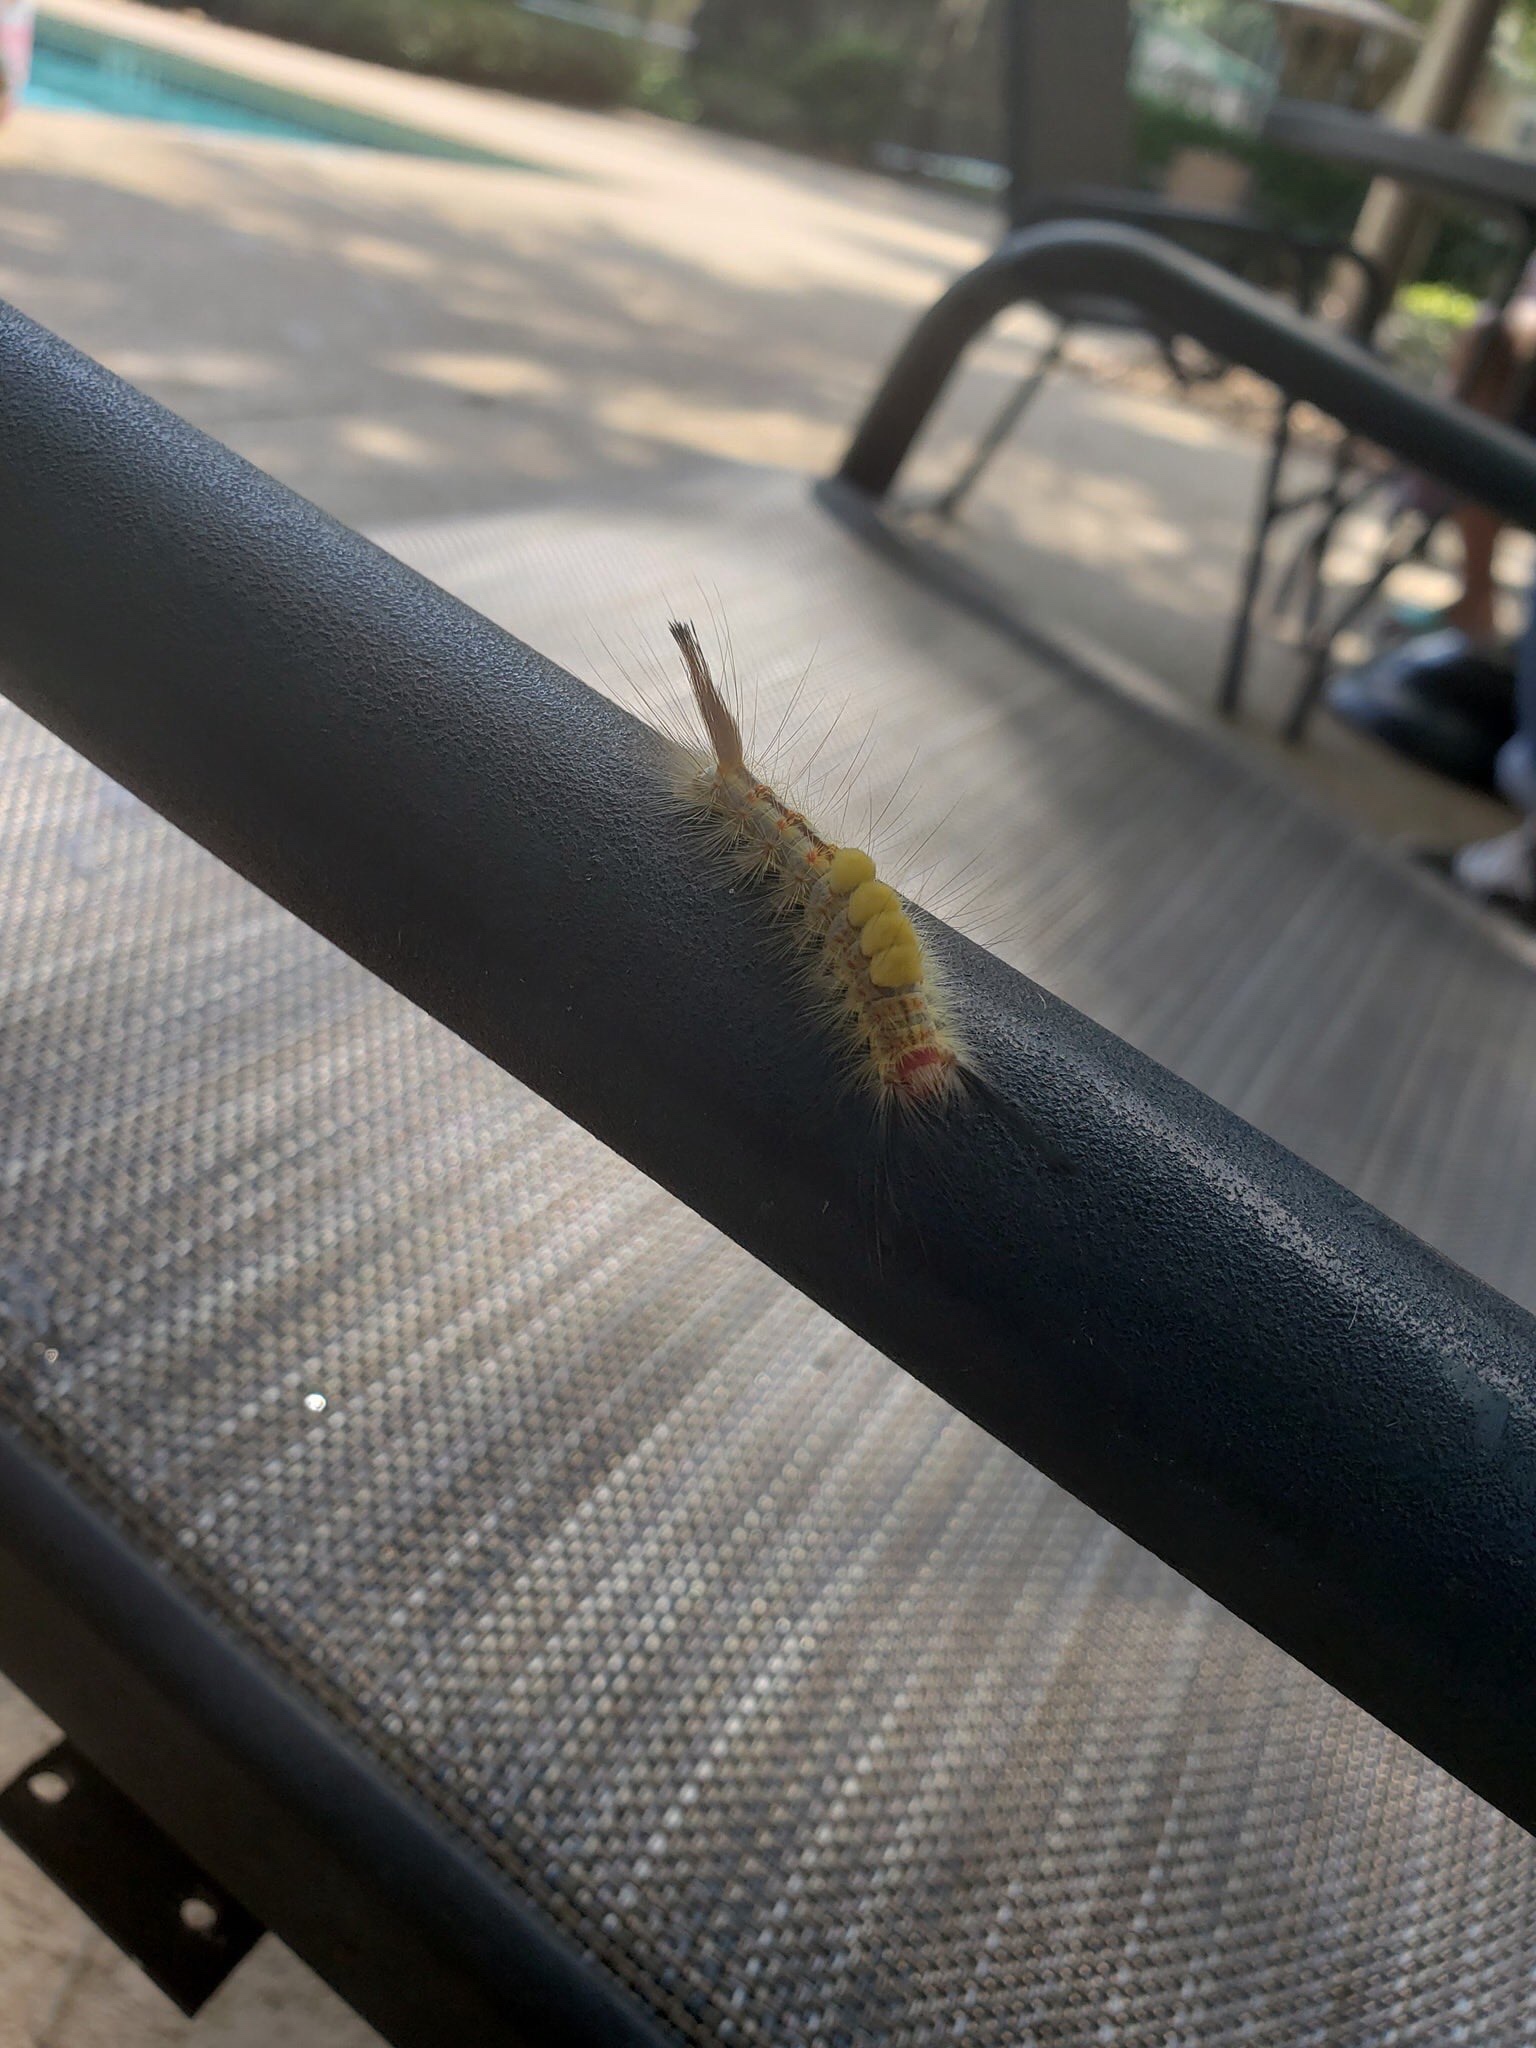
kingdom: Animalia
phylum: Arthropoda
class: Insecta
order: Lepidoptera
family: Erebidae
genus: Orgyia
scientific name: Orgyia detrita
